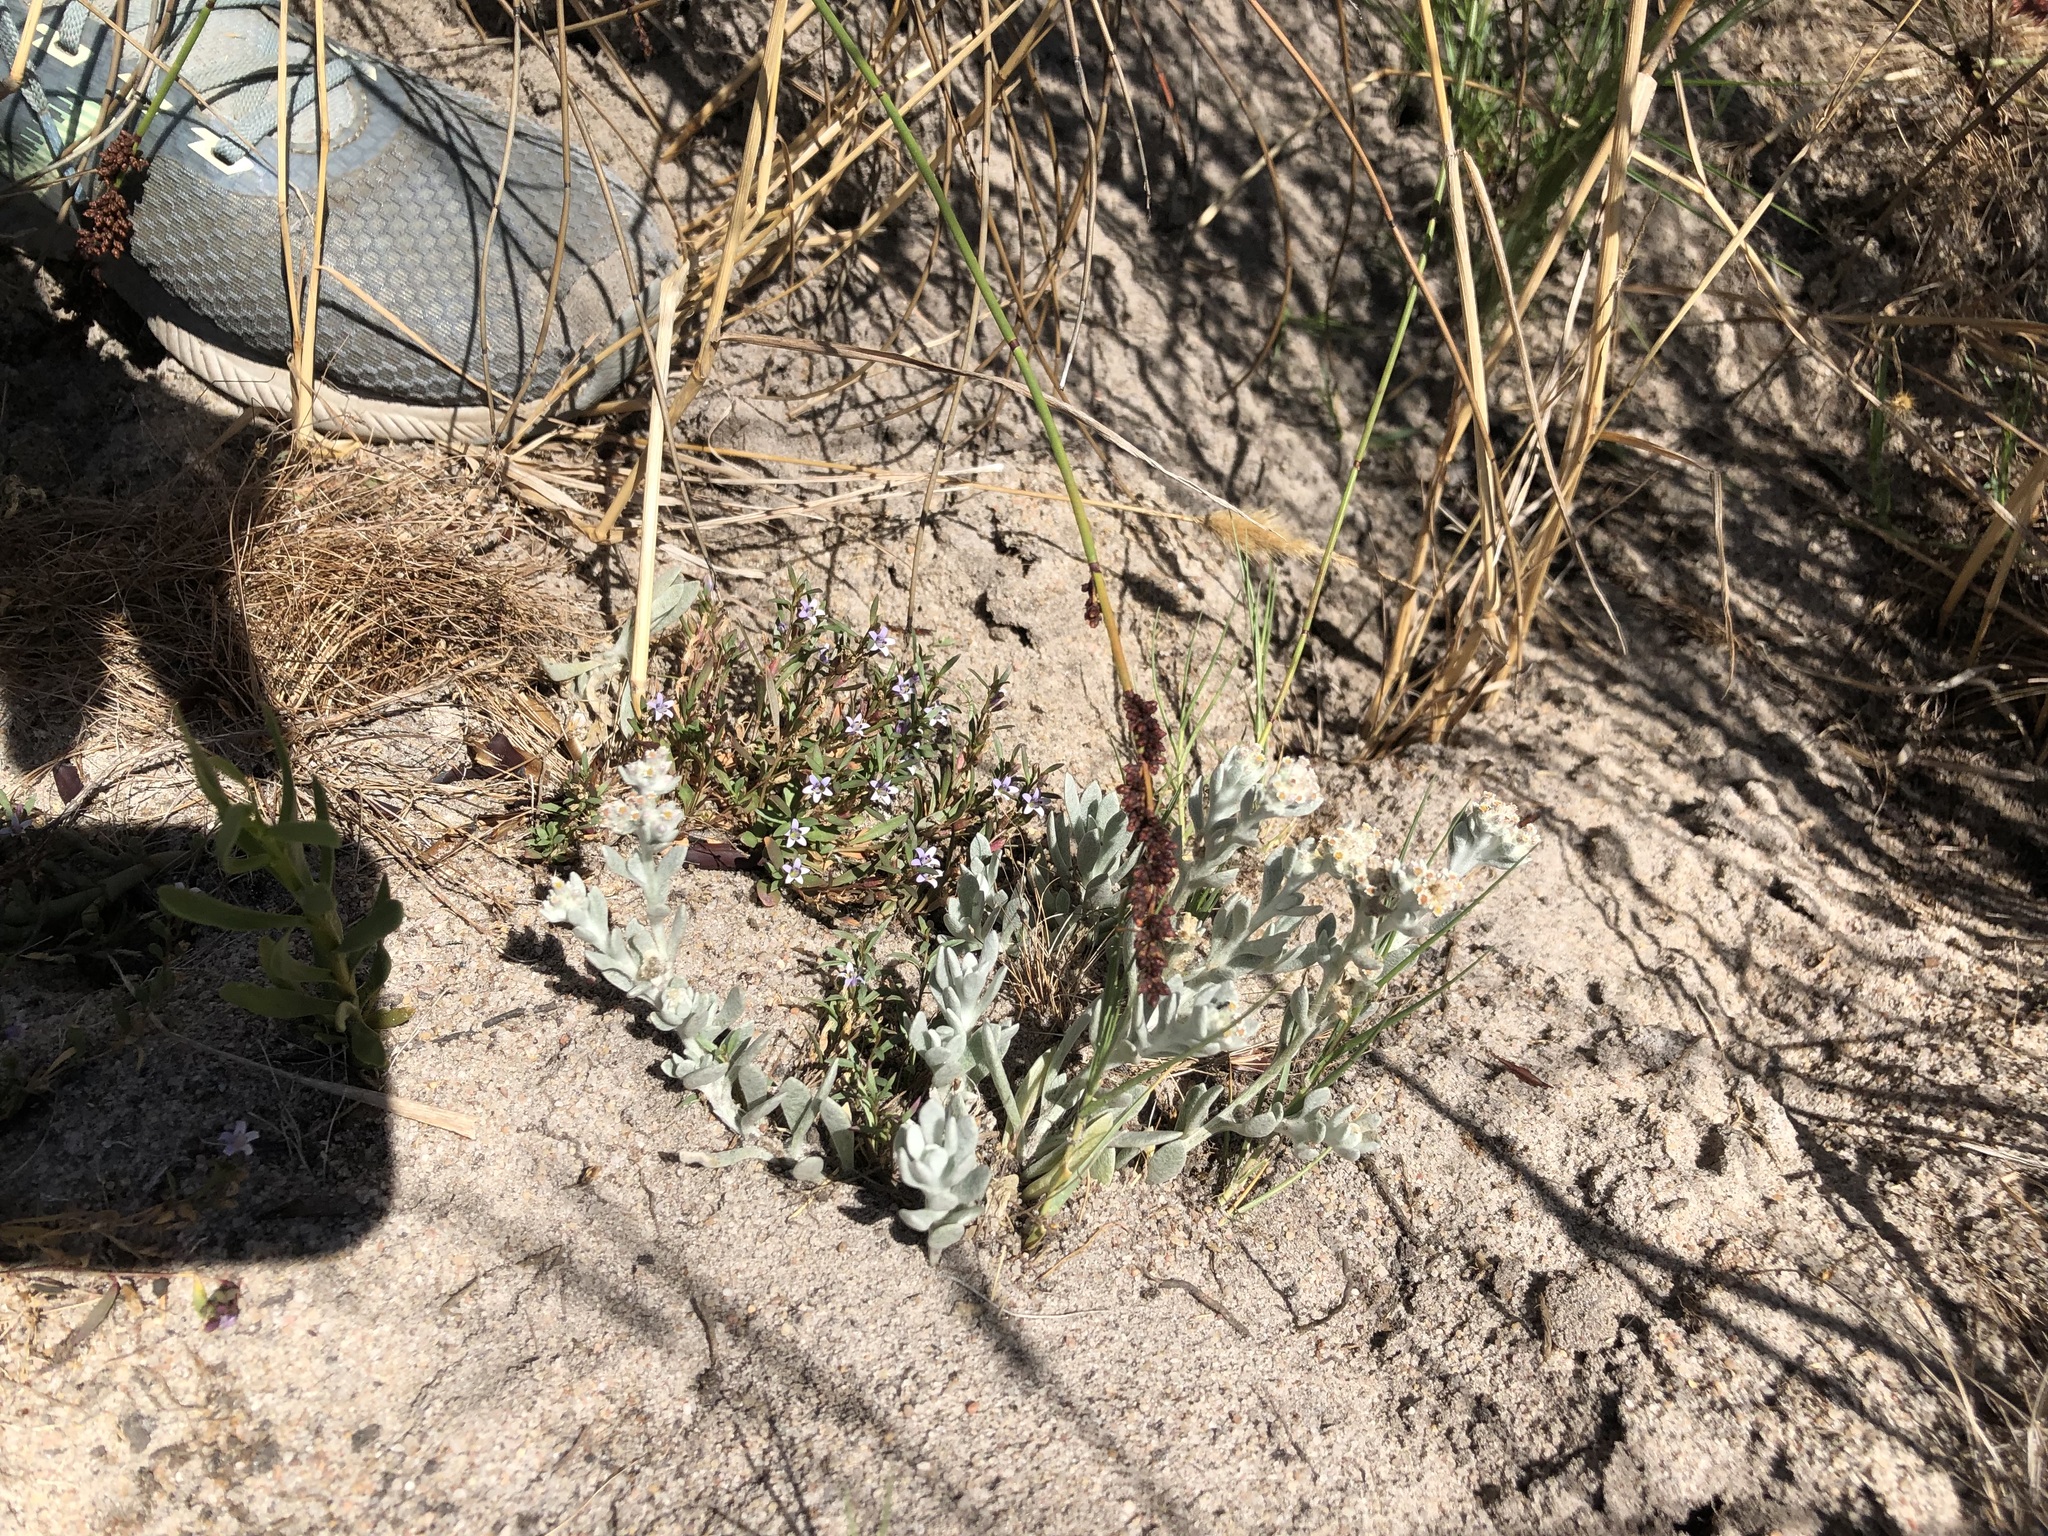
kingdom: Plantae
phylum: Tracheophyta
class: Magnoliopsida
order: Asterales
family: Asteraceae
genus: Vellereophyton
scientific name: Vellereophyton dealbatum
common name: White-cudweed
